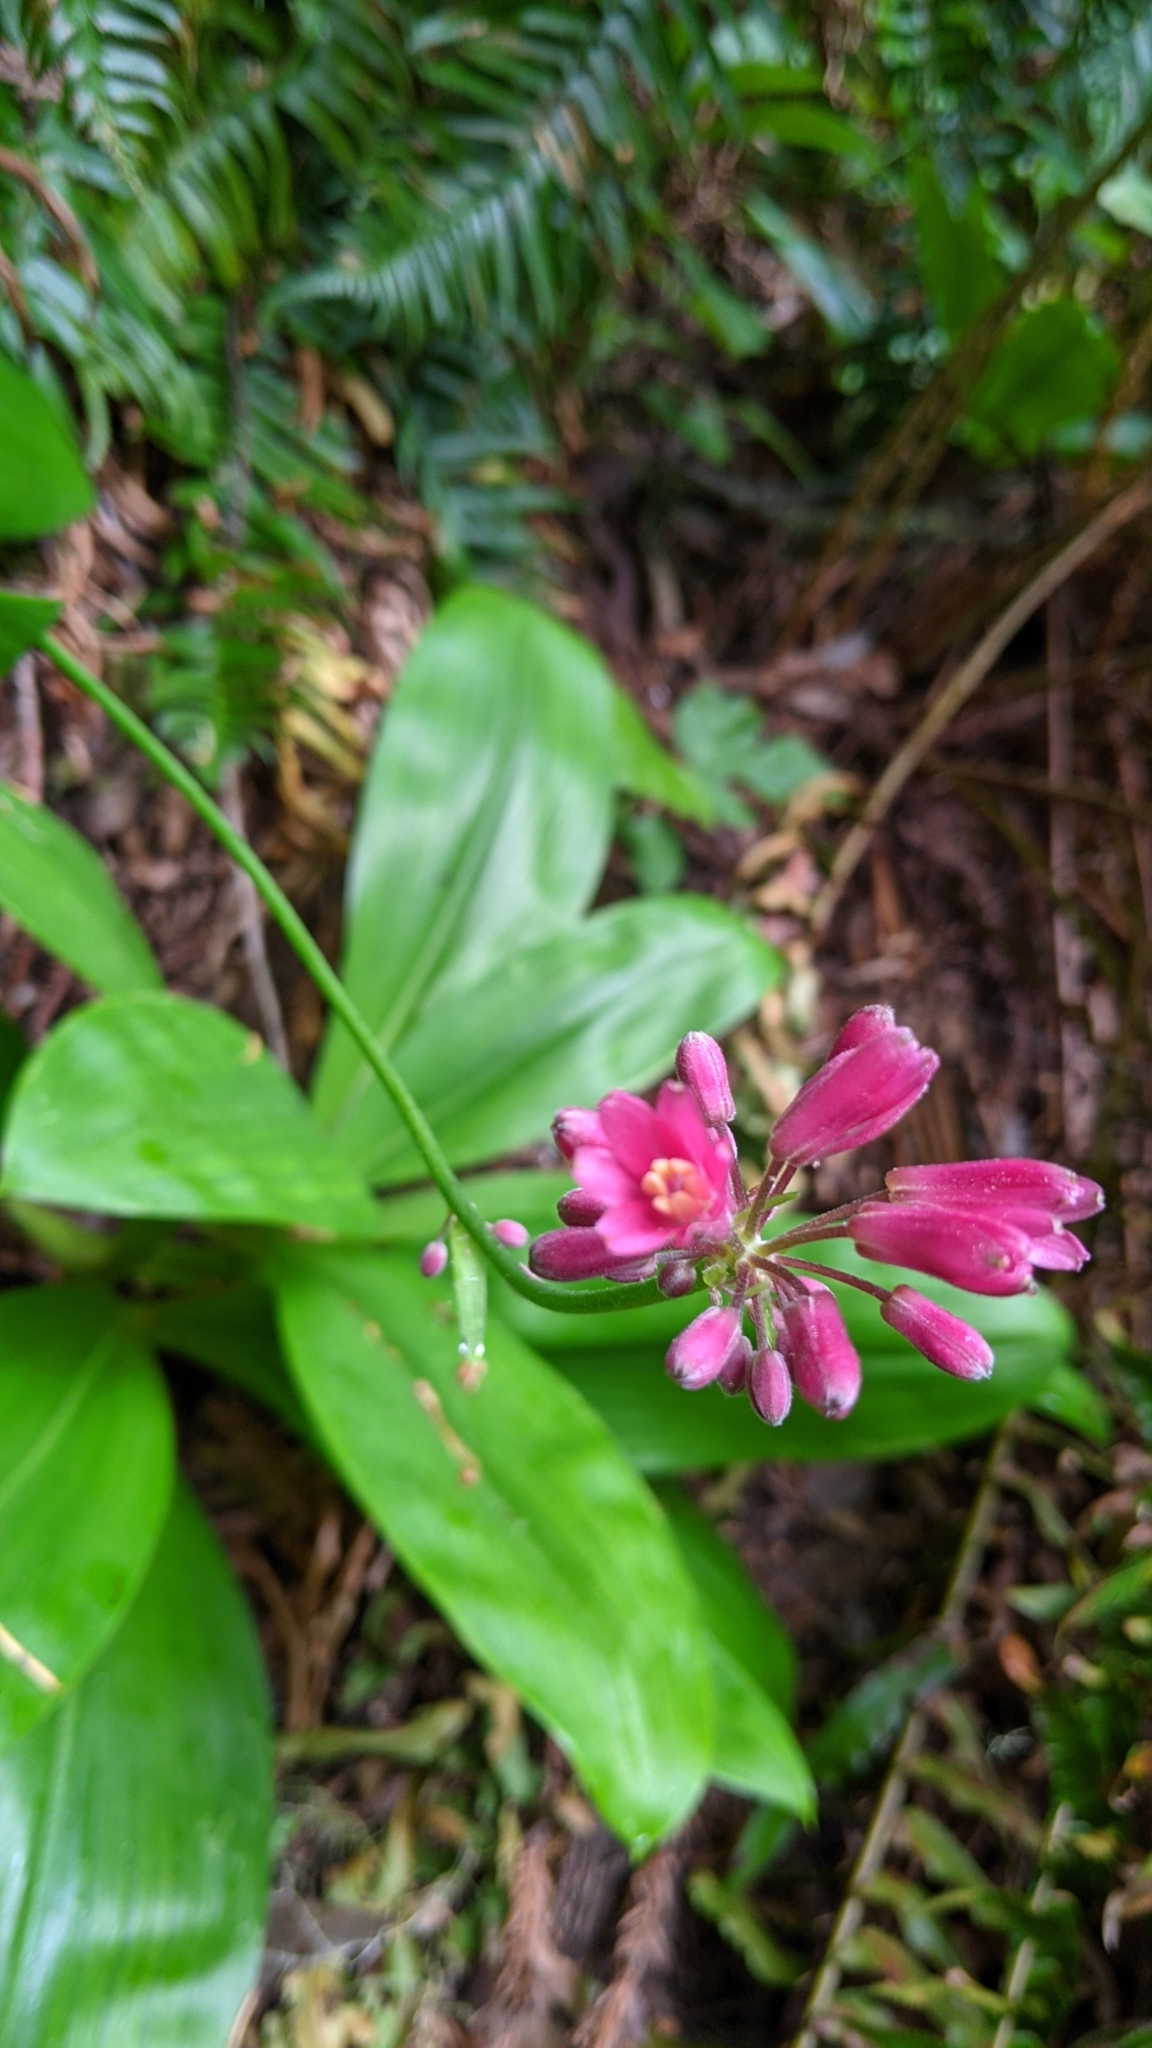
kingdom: Plantae
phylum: Tracheophyta
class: Liliopsida
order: Liliales
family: Liliaceae
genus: Clintonia
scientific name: Clintonia andrewsiana
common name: Red clintonia
